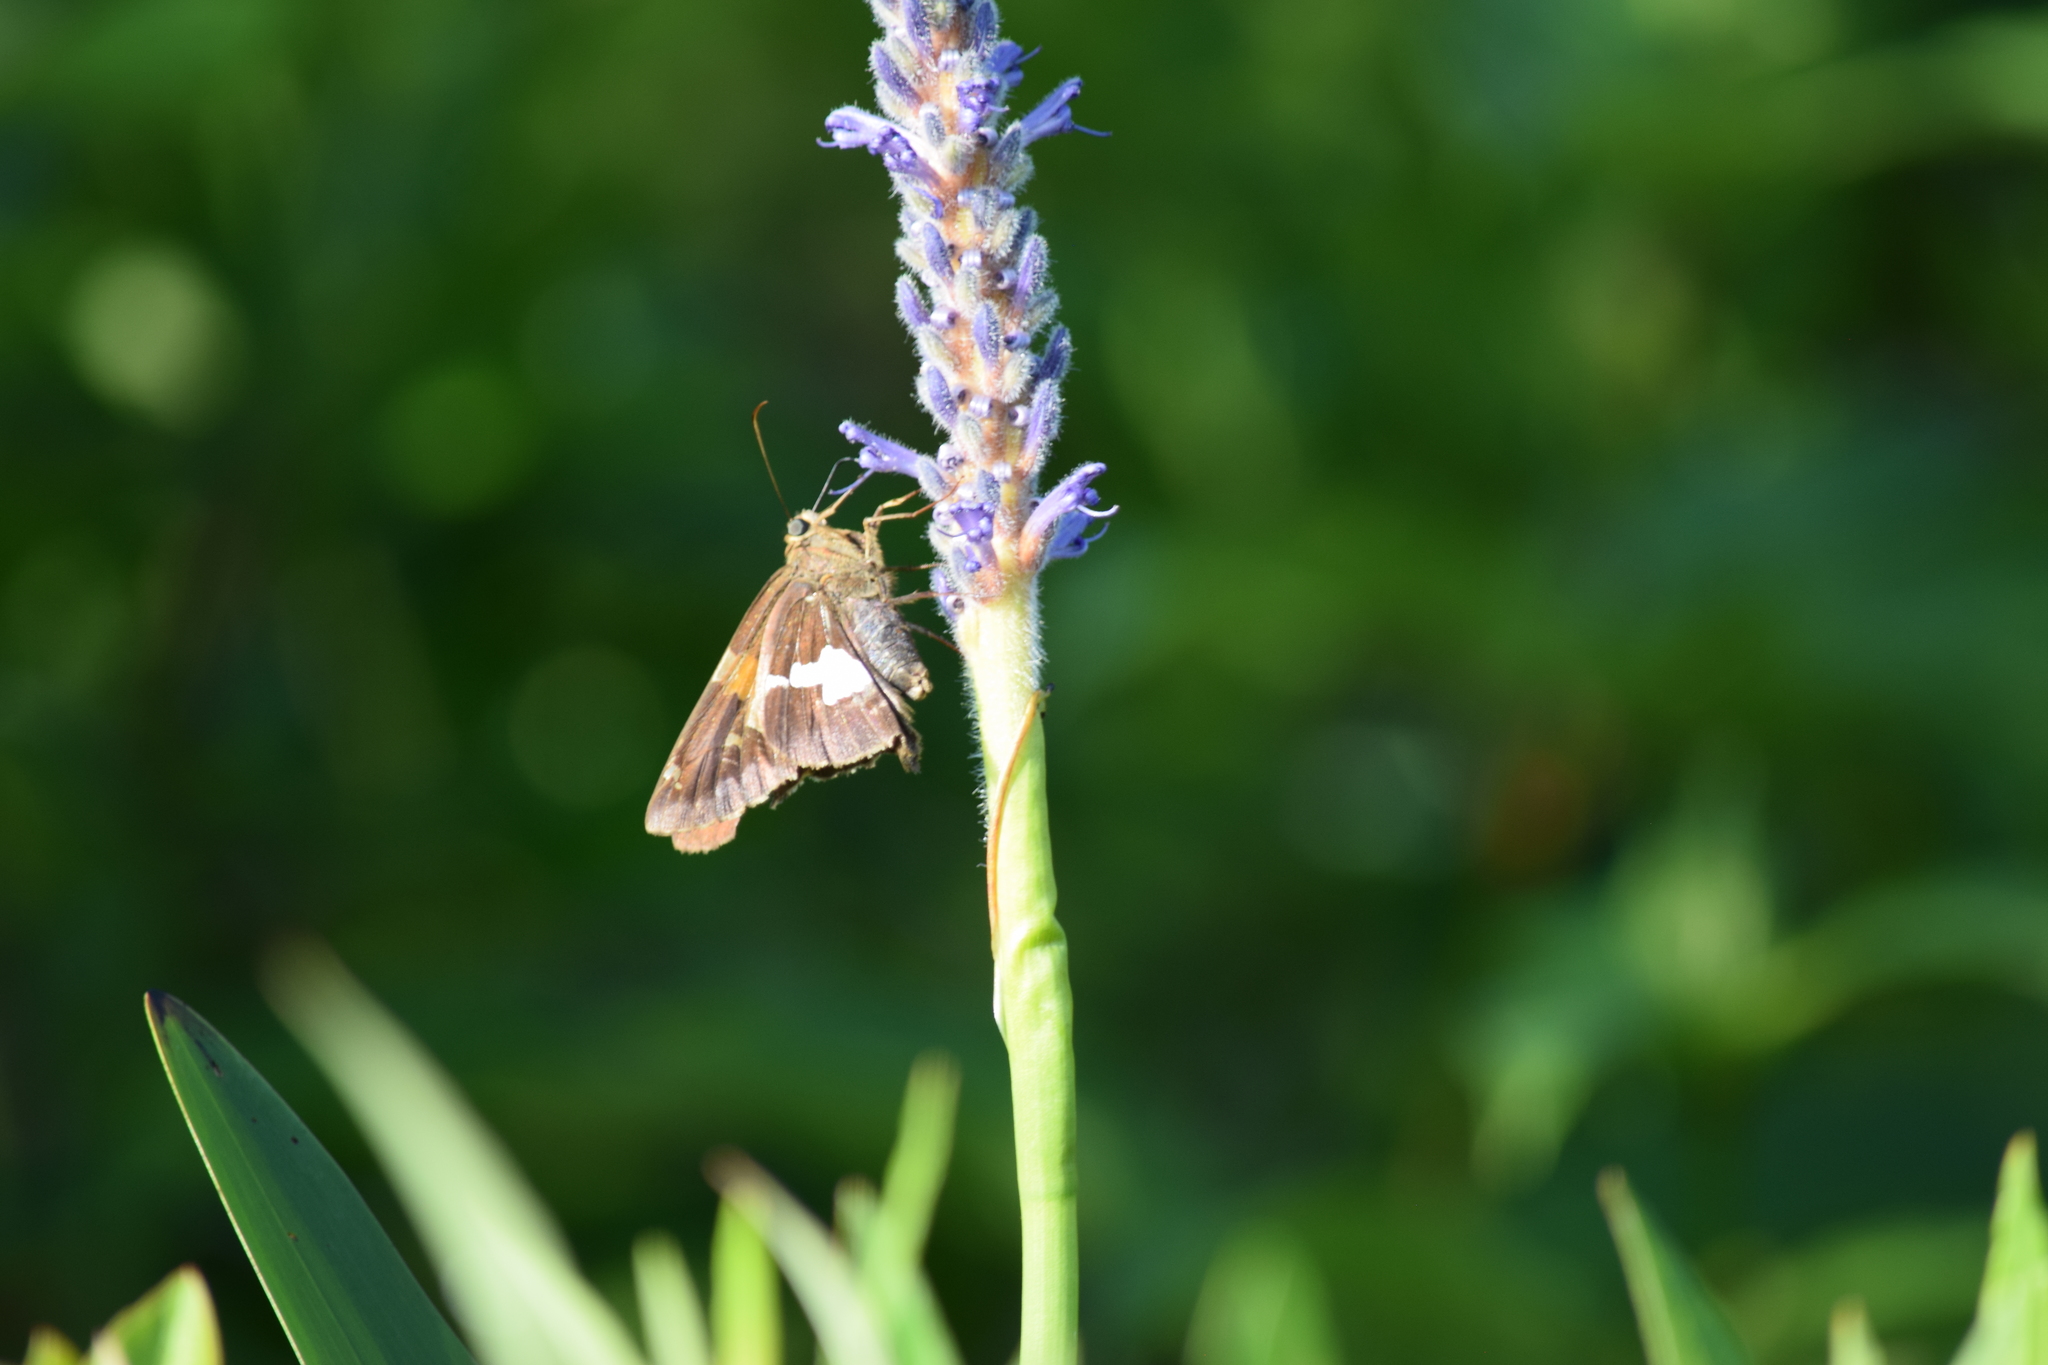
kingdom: Animalia
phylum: Arthropoda
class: Insecta
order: Lepidoptera
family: Hesperiidae
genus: Epargyreus
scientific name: Epargyreus clarus
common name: Silver-spotted skipper
